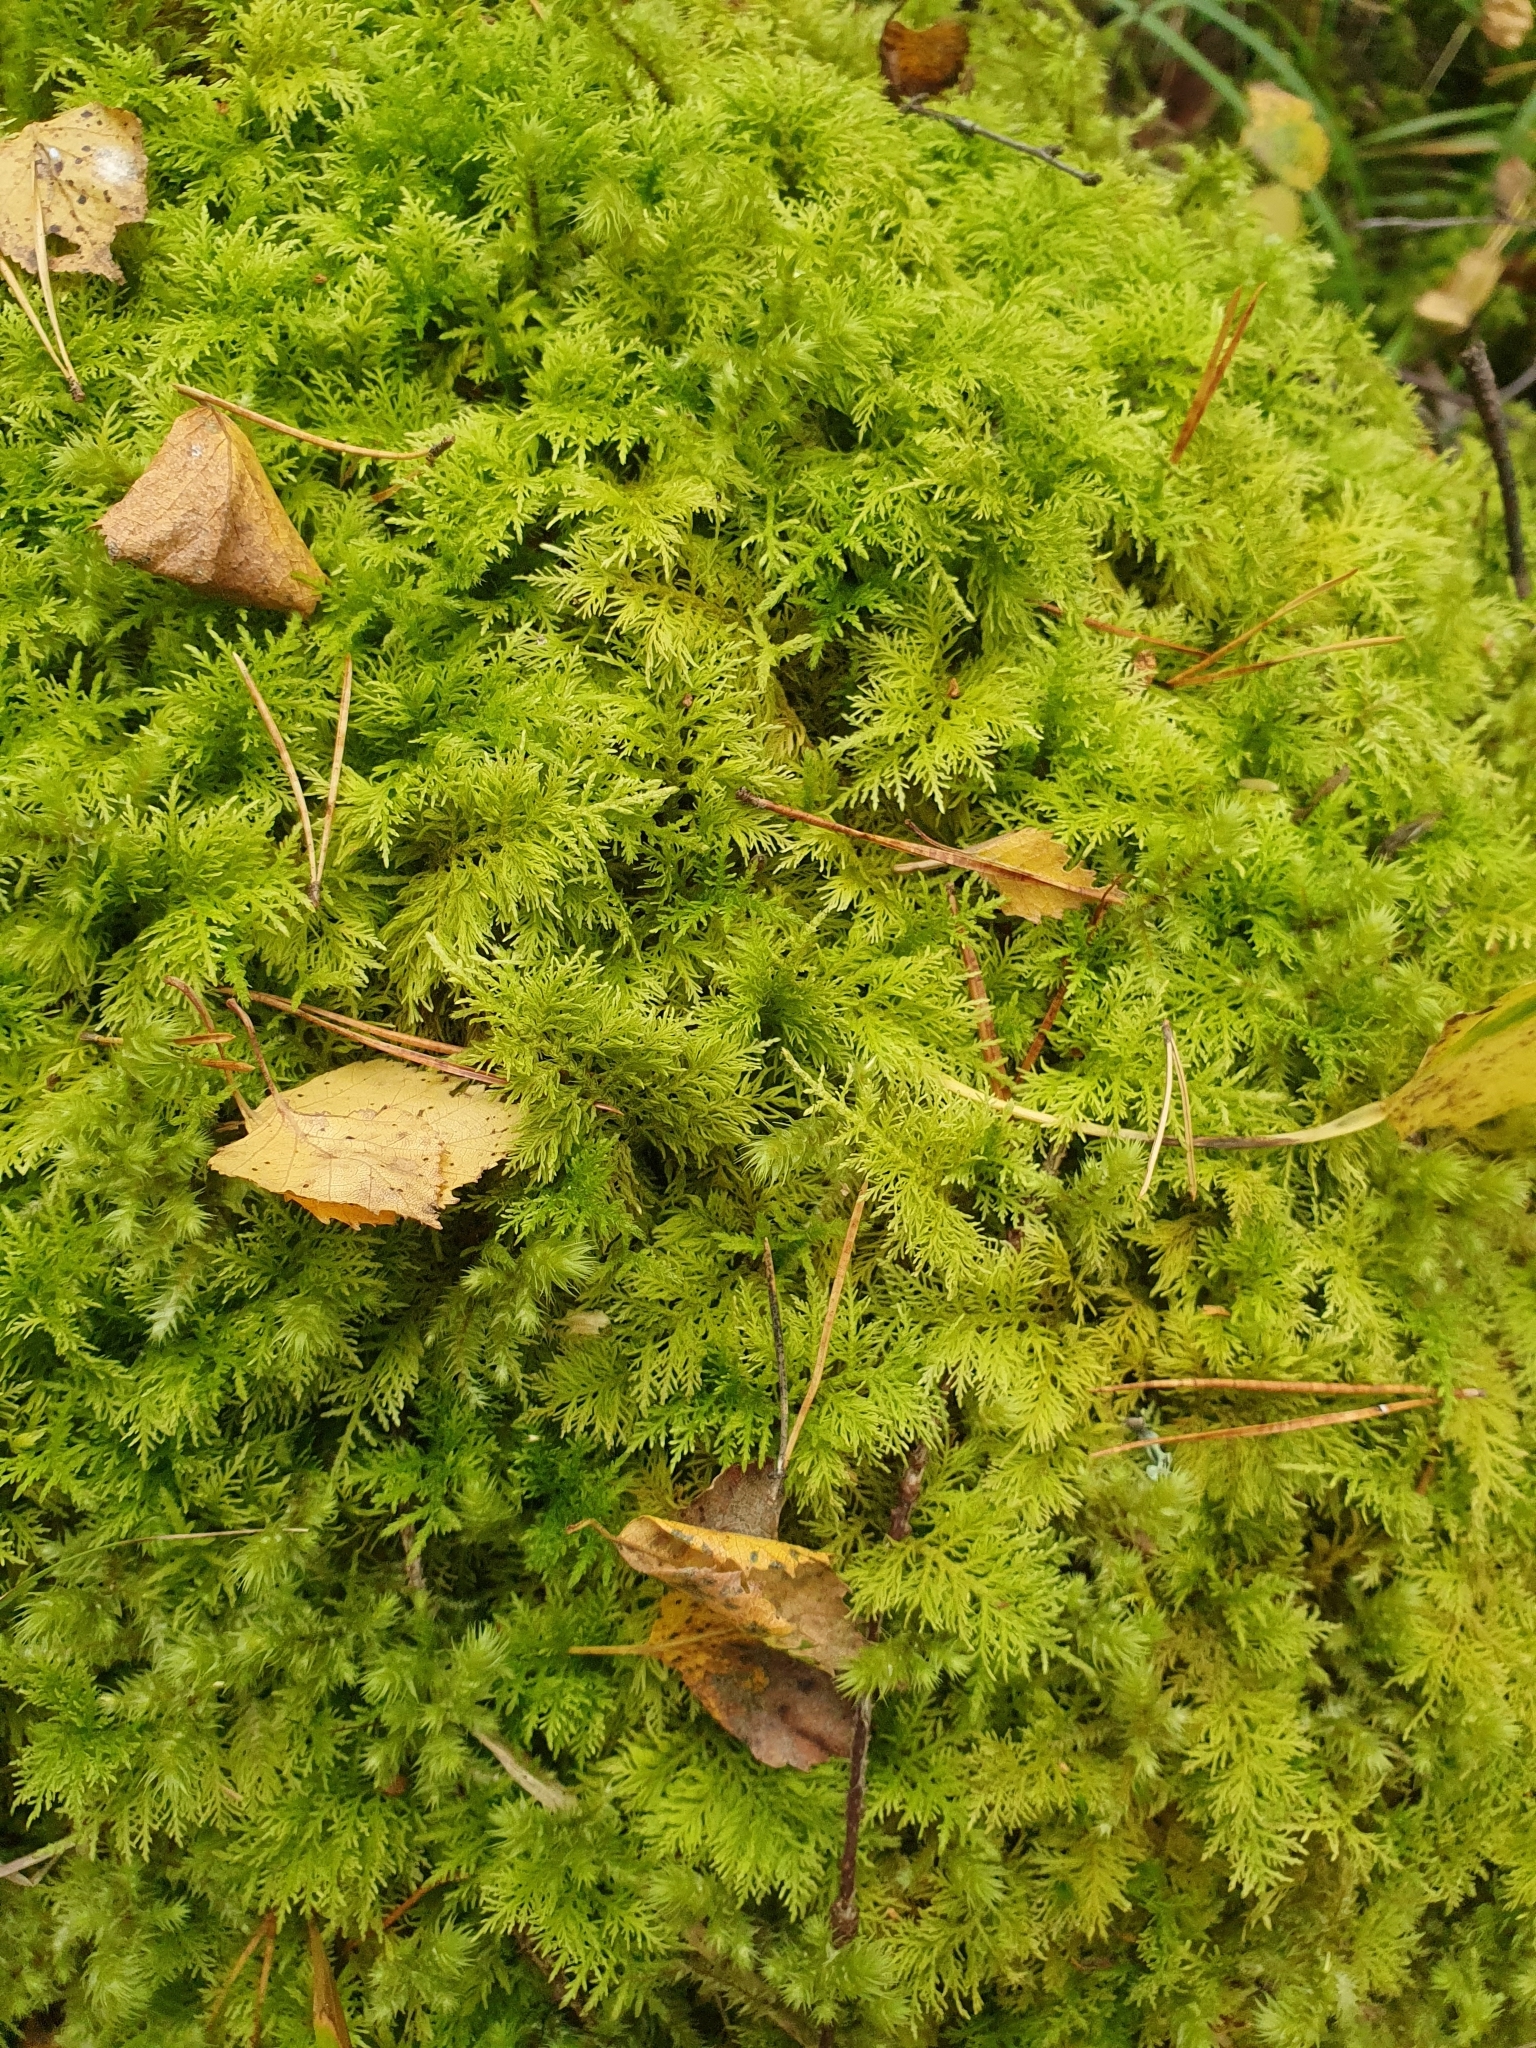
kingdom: Plantae
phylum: Bryophyta
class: Bryopsida
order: Hypnales
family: Thuidiaceae
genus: Thuidium
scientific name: Thuidium tamariscinum
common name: Common tamarisk-moss
